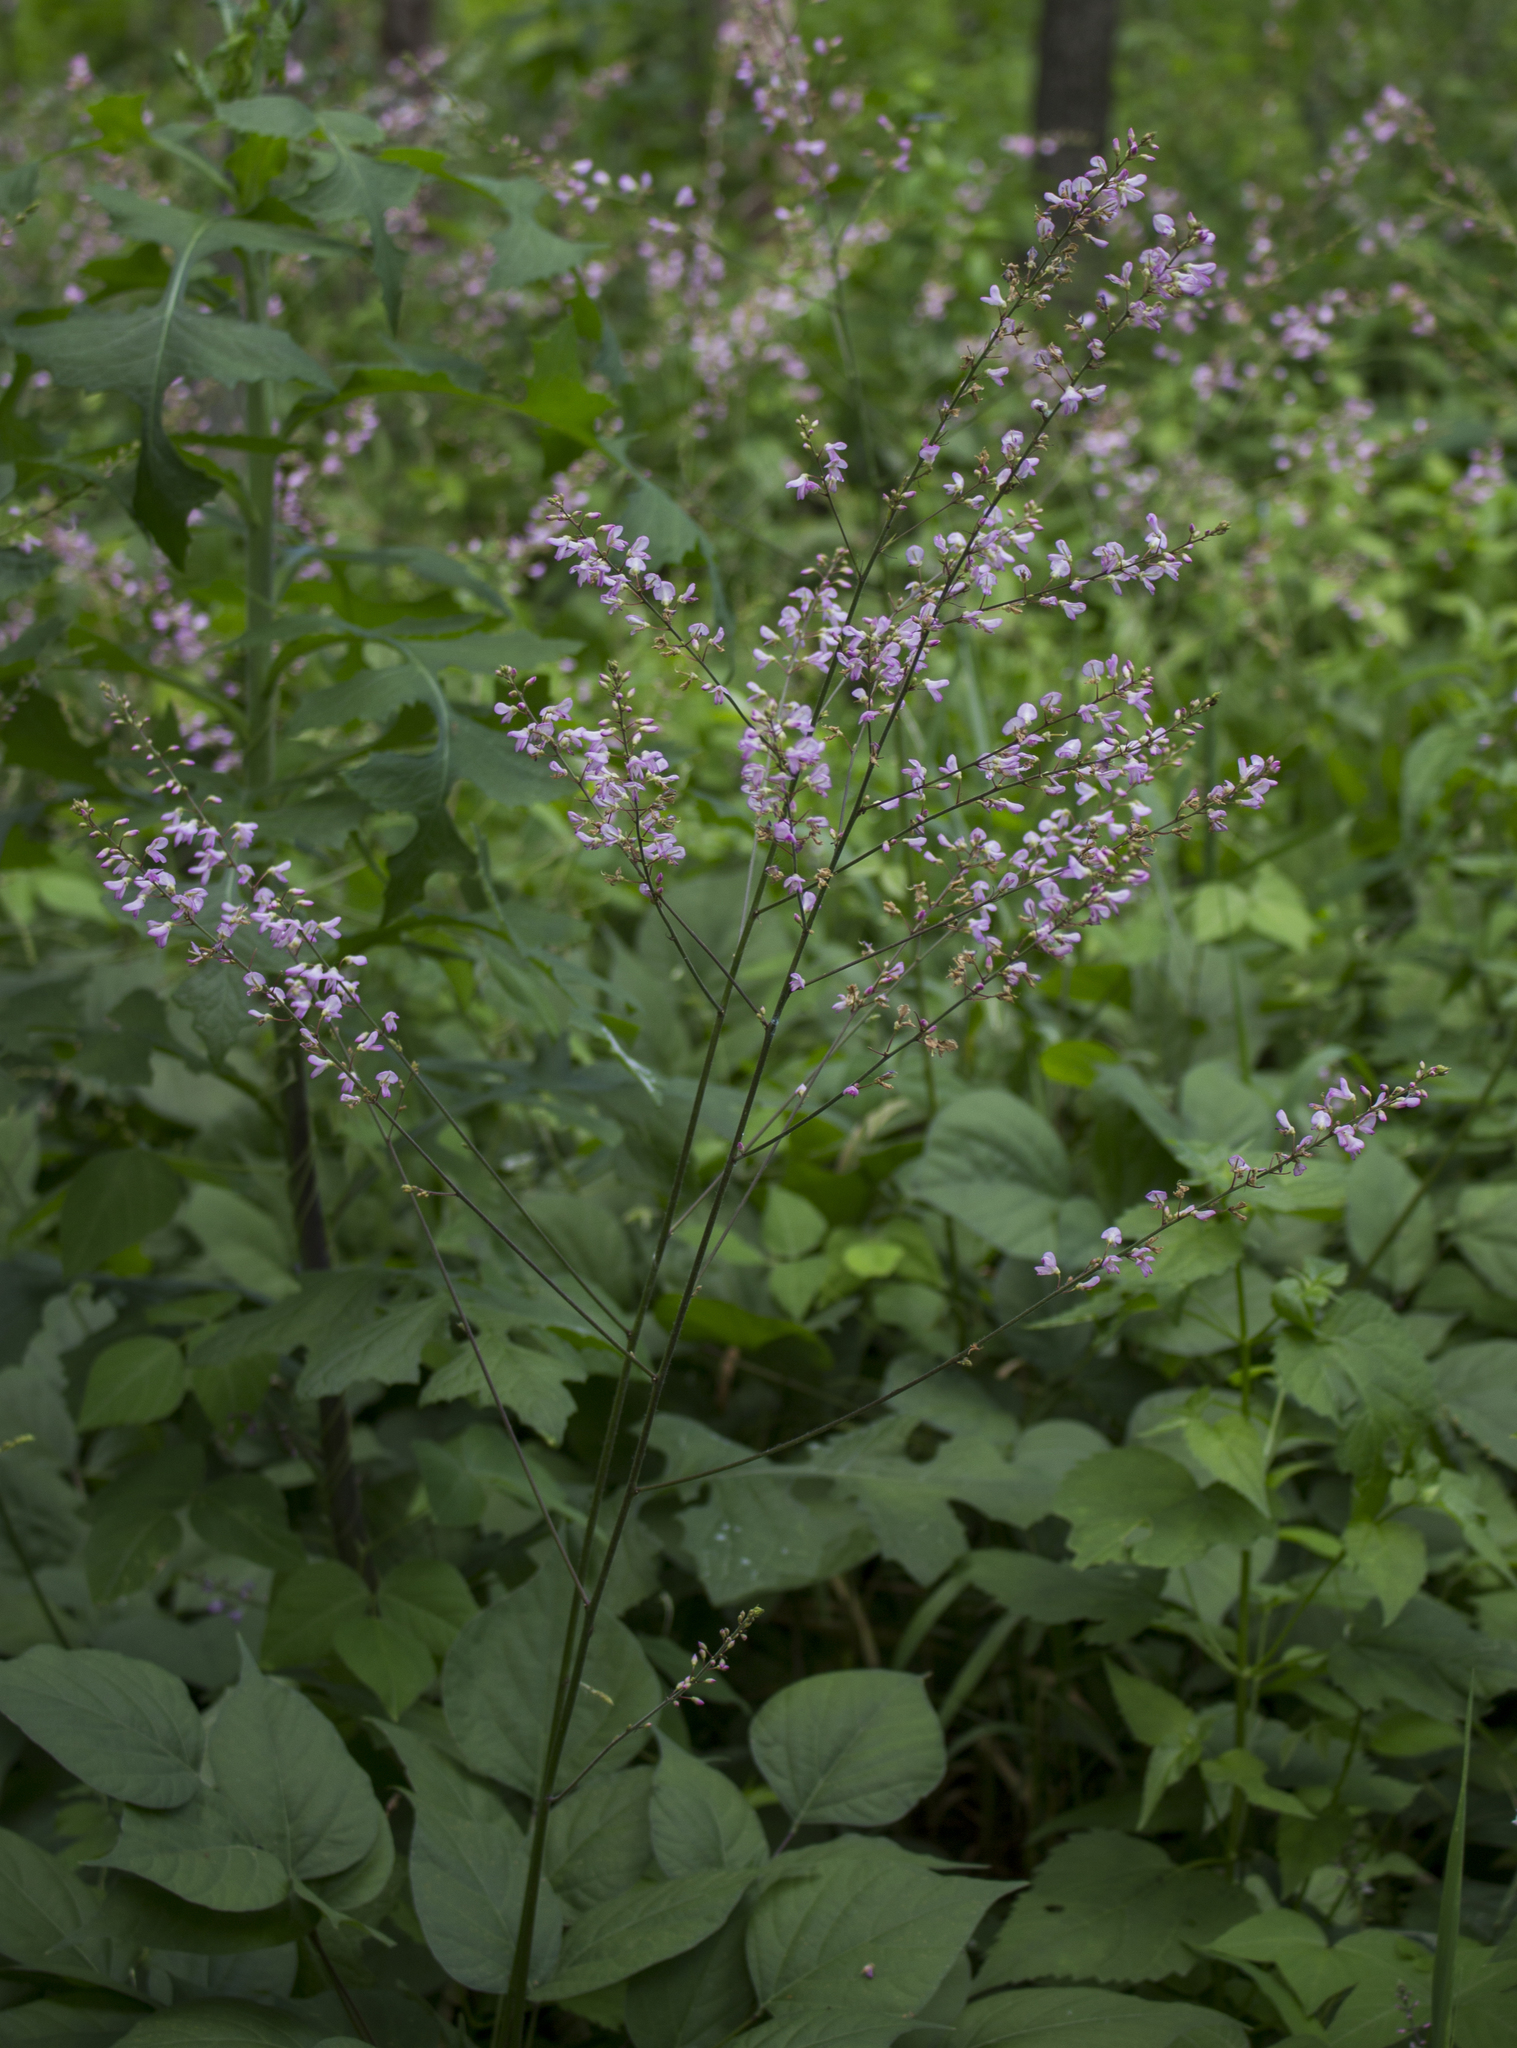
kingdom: Plantae
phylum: Tracheophyta
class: Magnoliopsida
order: Fabales
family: Fabaceae
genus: Hylodesmum
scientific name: Hylodesmum glutinosum
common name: Clustered-leaved tick-trefoil
